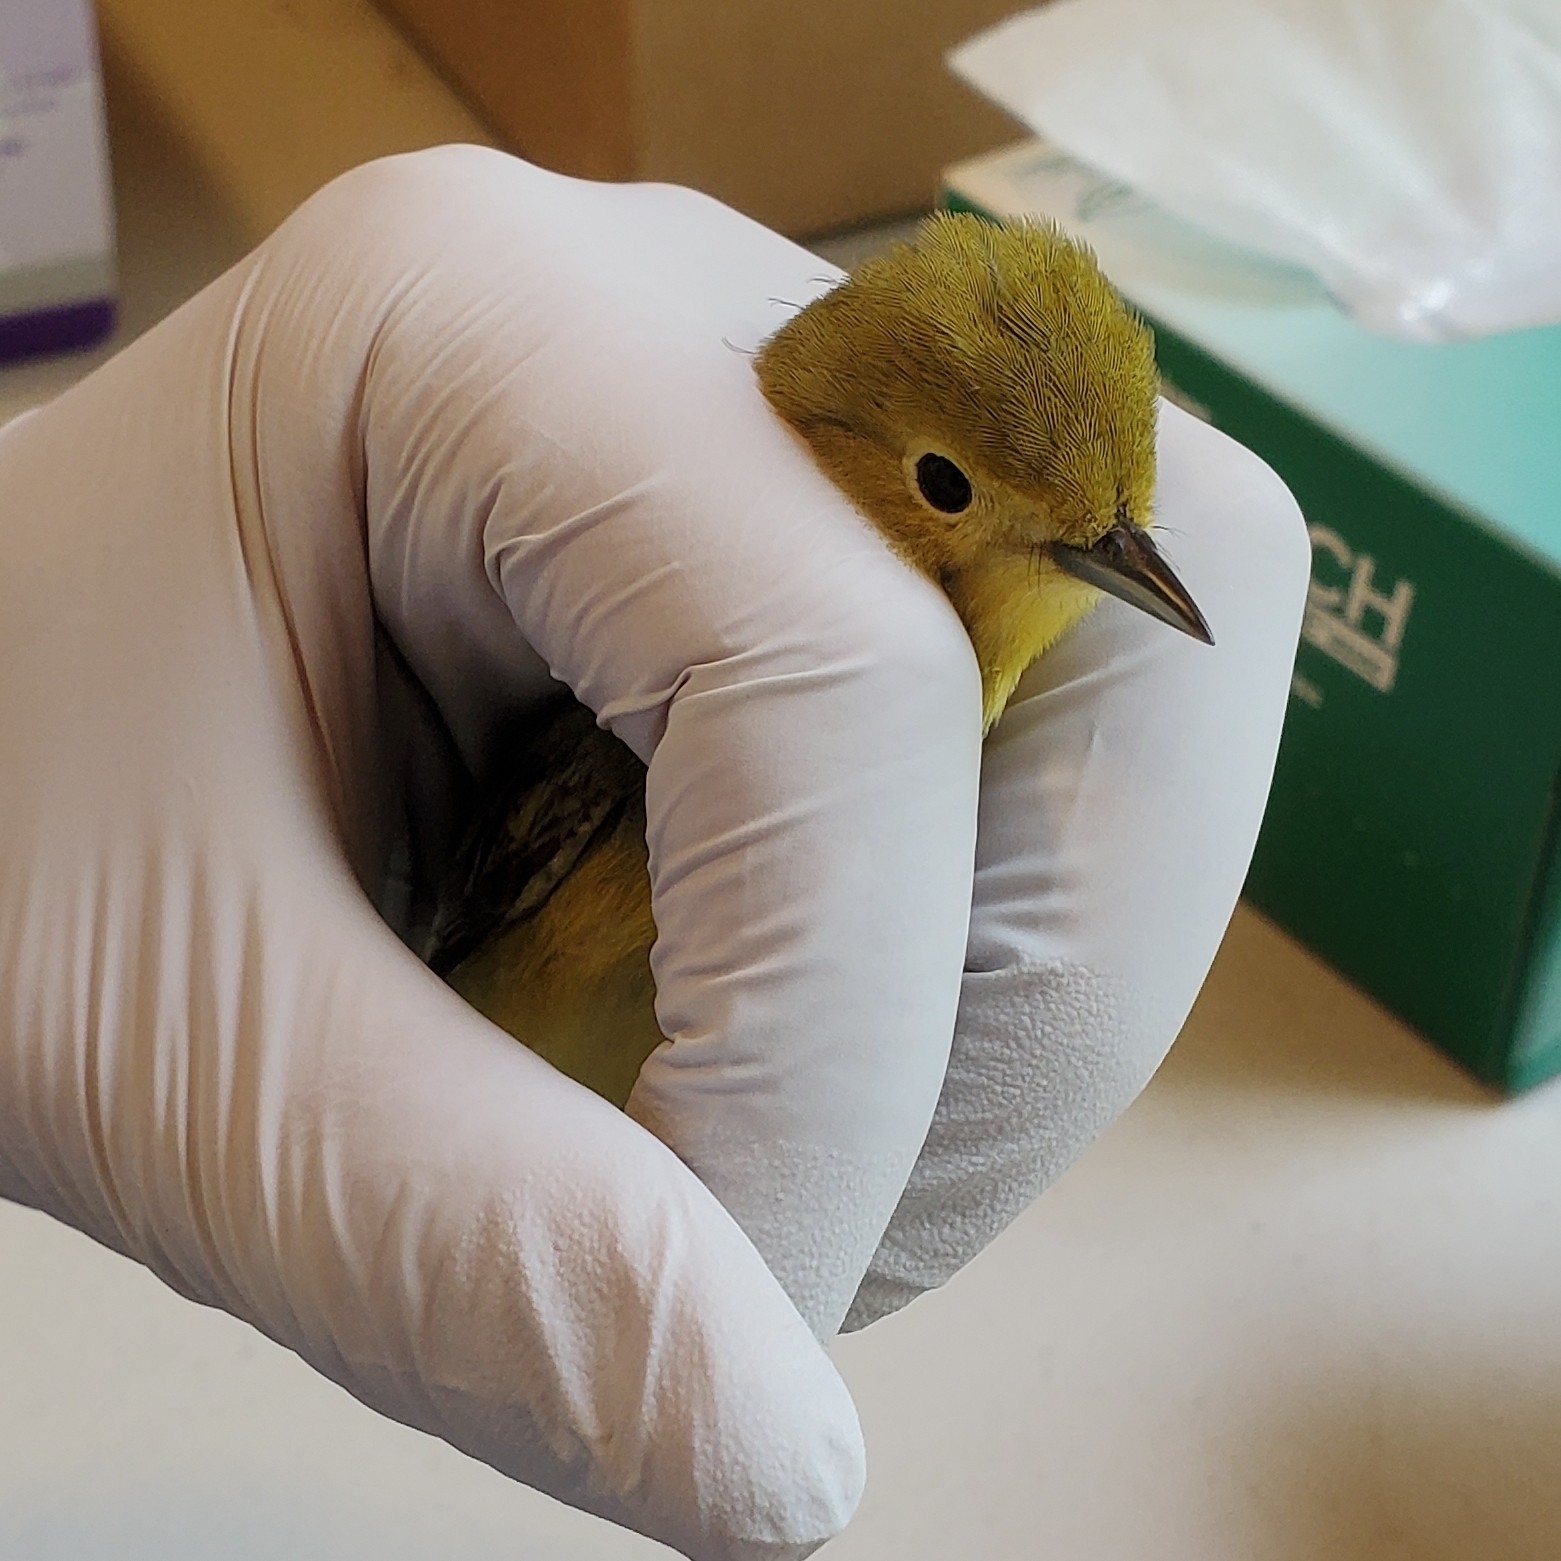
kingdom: Animalia
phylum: Chordata
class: Aves
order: Passeriformes
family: Parulidae
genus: Setophaga
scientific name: Setophaga petechia
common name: Yellow warbler
